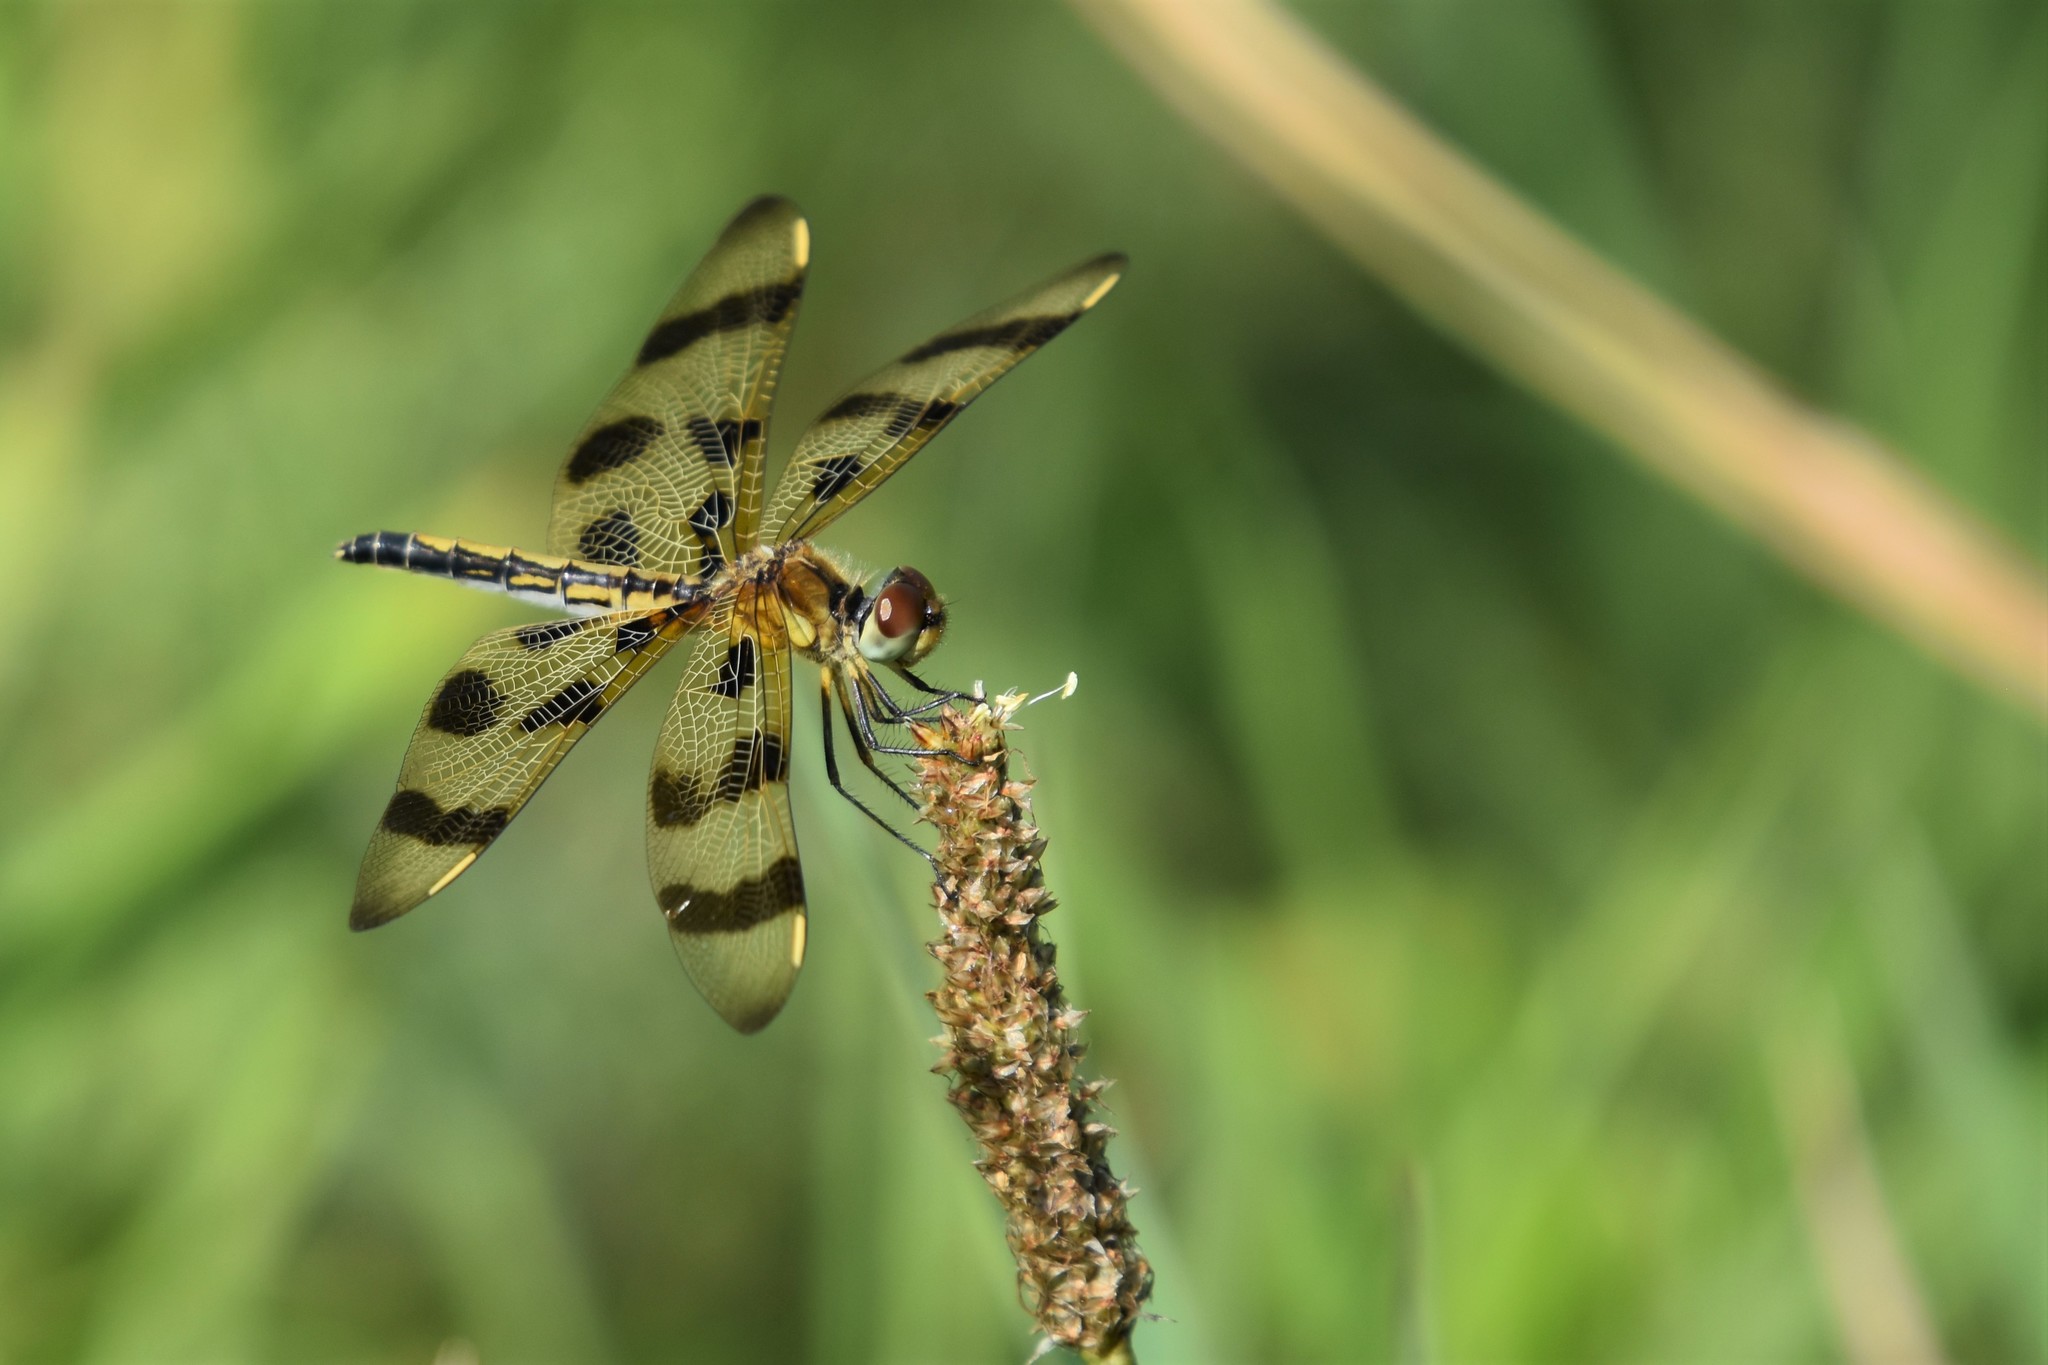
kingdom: Animalia
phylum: Arthropoda
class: Insecta
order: Odonata
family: Libellulidae
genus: Celithemis
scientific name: Celithemis eponina
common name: Halloween pennant
